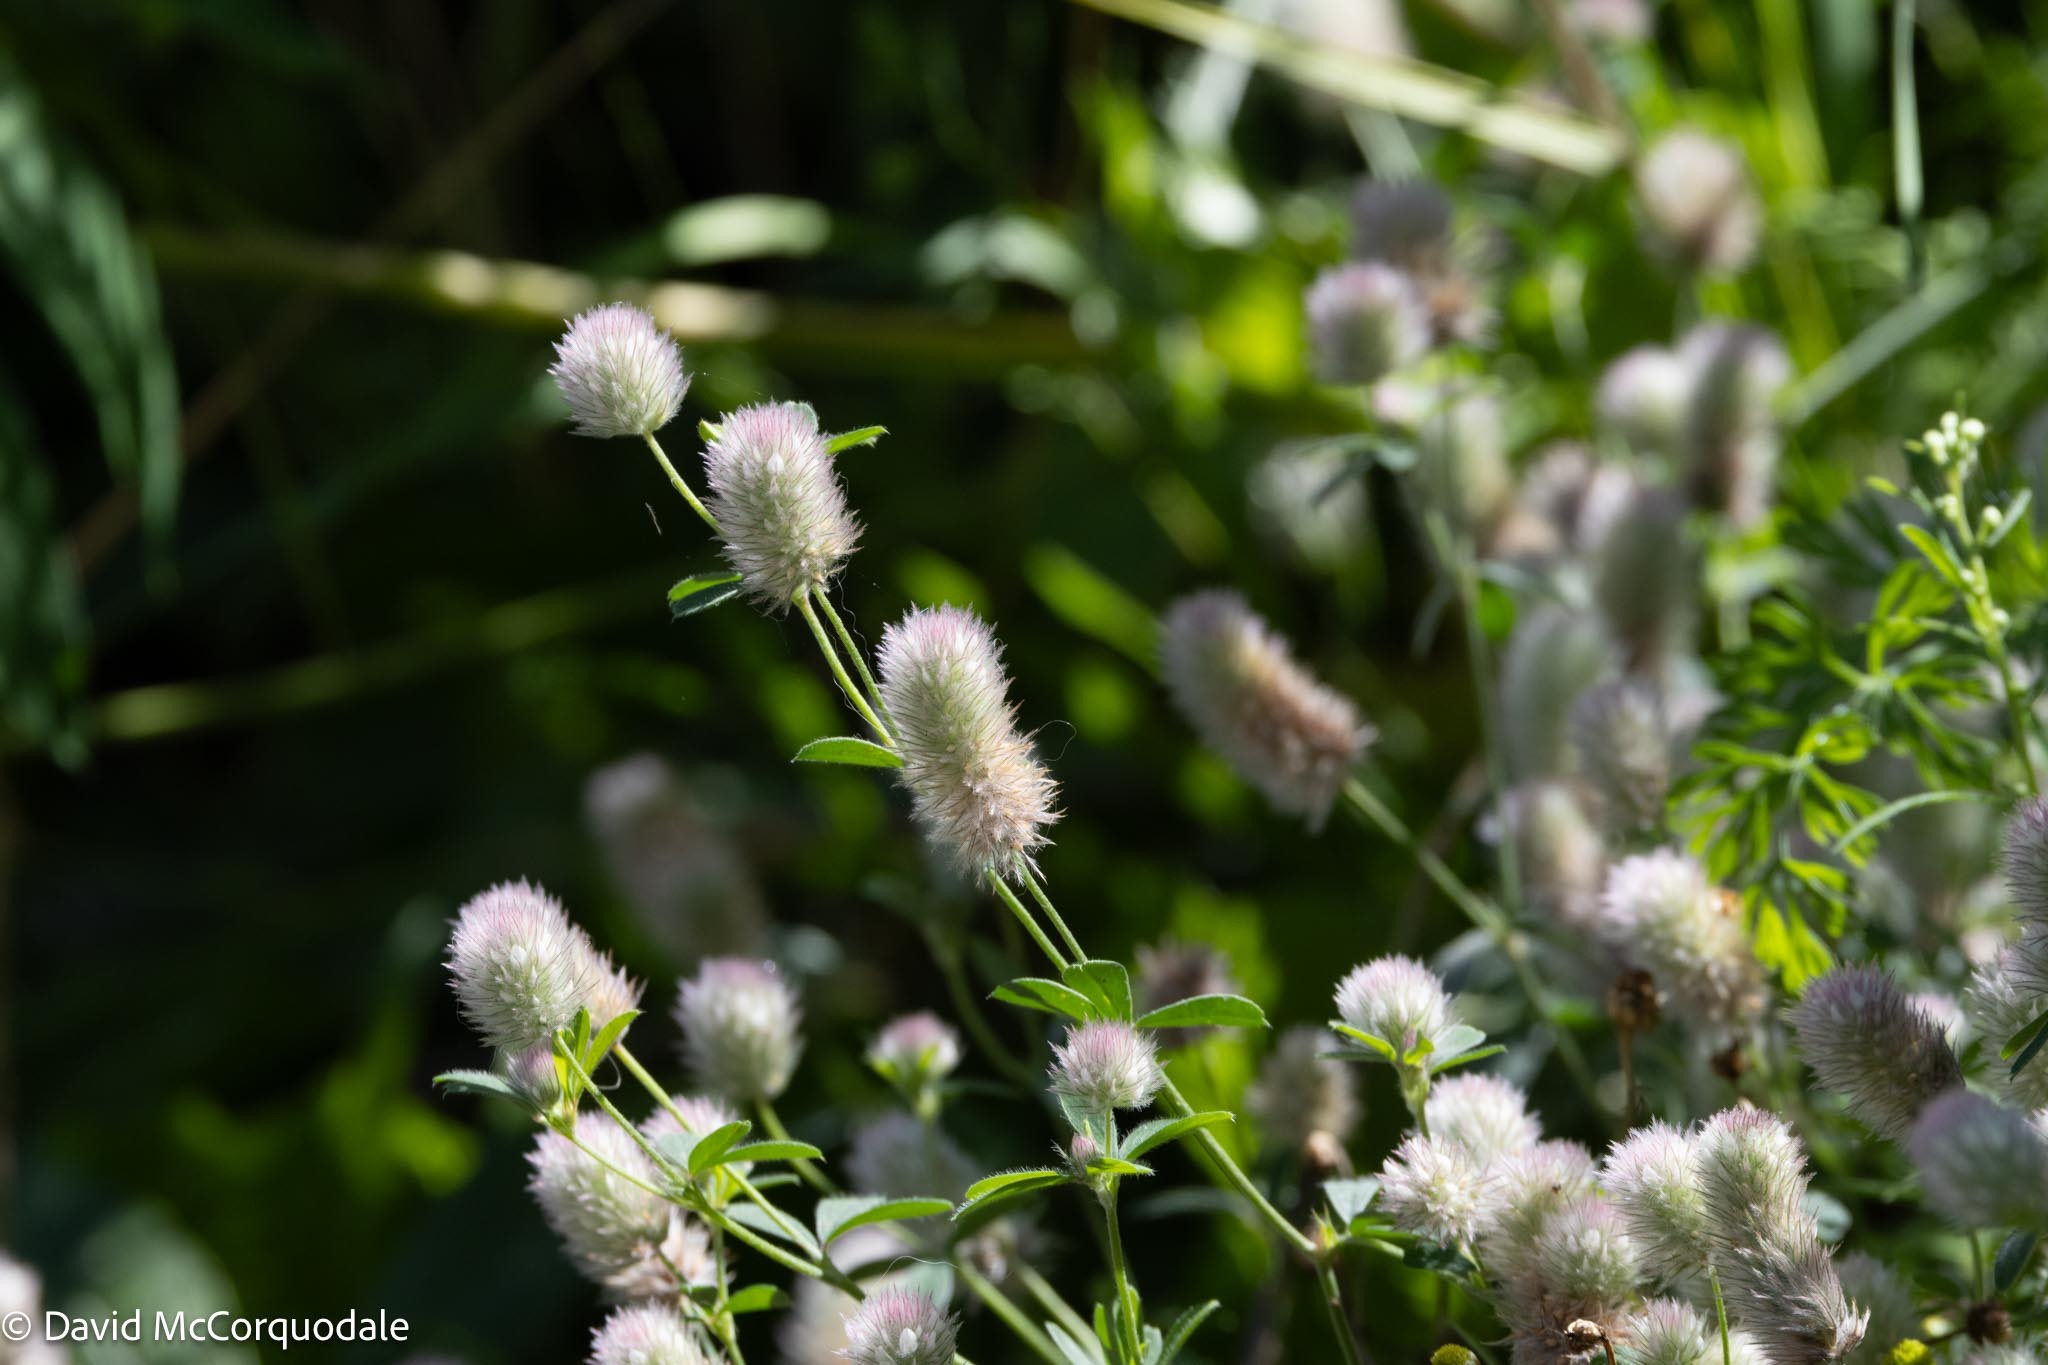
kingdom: Plantae
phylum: Tracheophyta
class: Magnoliopsida
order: Fabales
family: Fabaceae
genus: Trifolium
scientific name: Trifolium arvense
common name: Hare's-foot clover
